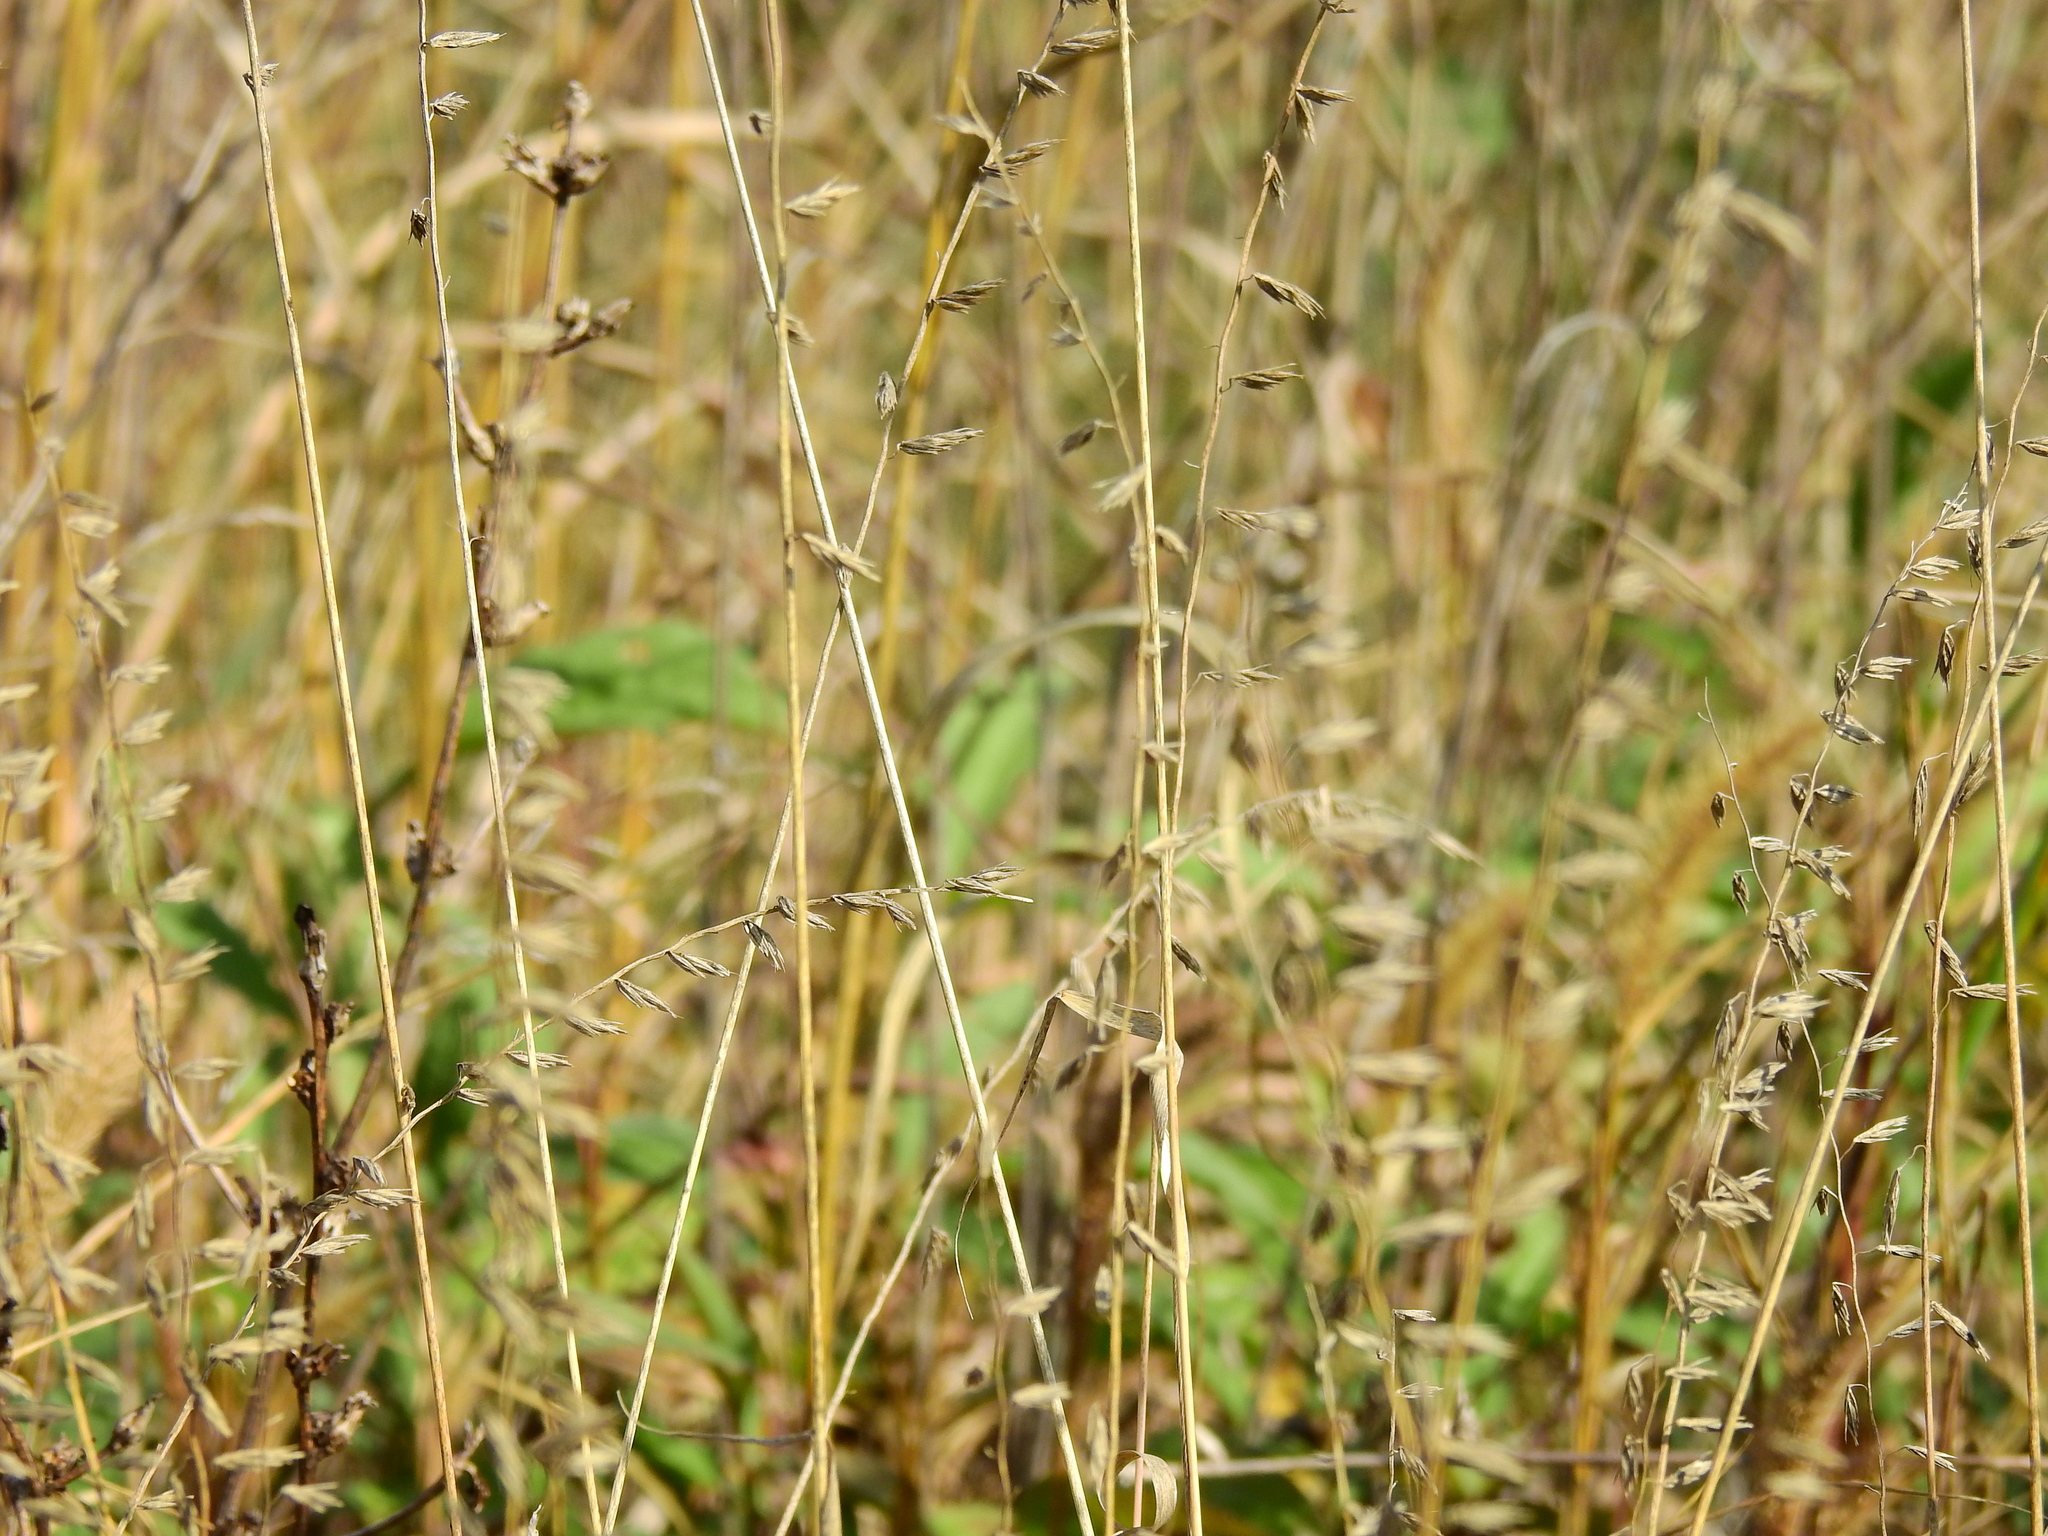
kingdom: Plantae
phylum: Tracheophyta
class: Liliopsida
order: Poales
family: Poaceae
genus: Bouteloua
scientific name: Bouteloua curtipendula
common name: Side-oats grama
